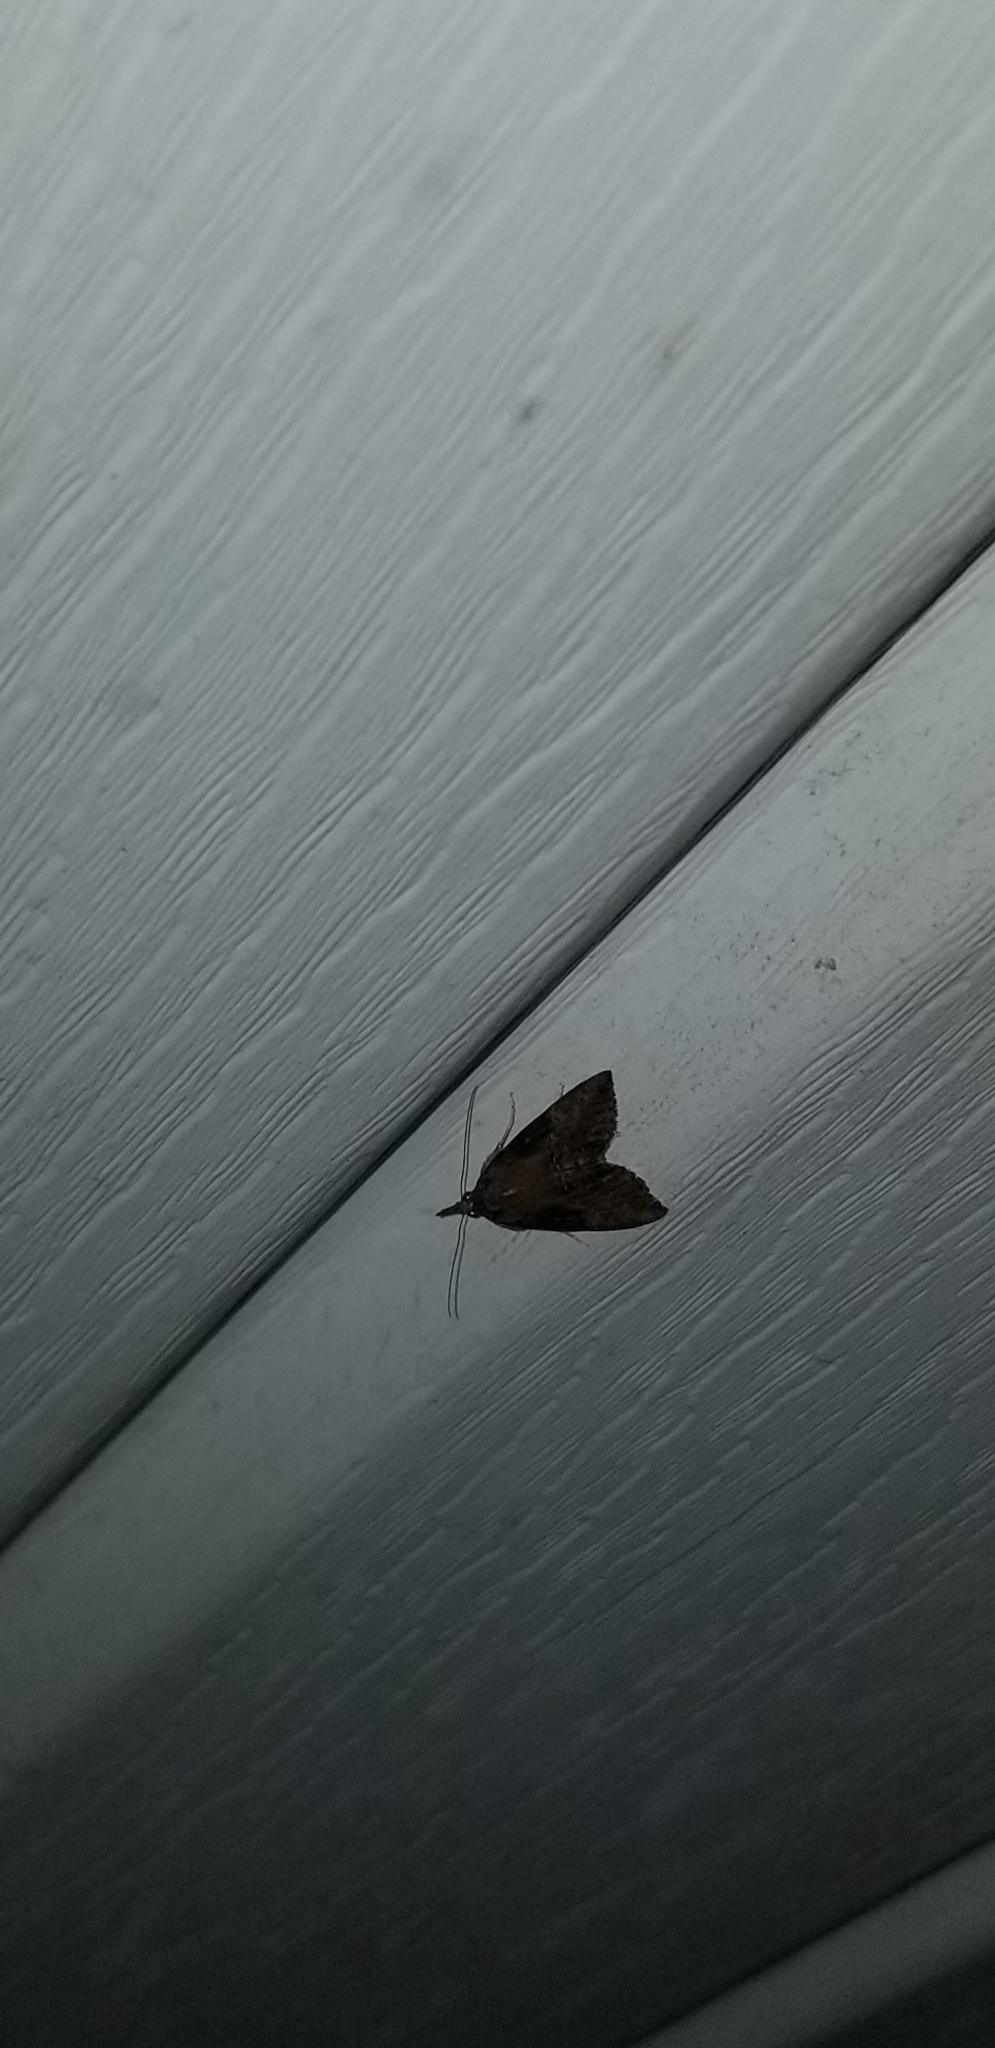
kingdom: Animalia
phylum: Arthropoda
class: Insecta
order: Lepidoptera
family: Erebidae
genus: Hypena
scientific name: Hypena scabra
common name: Green cloverworm
